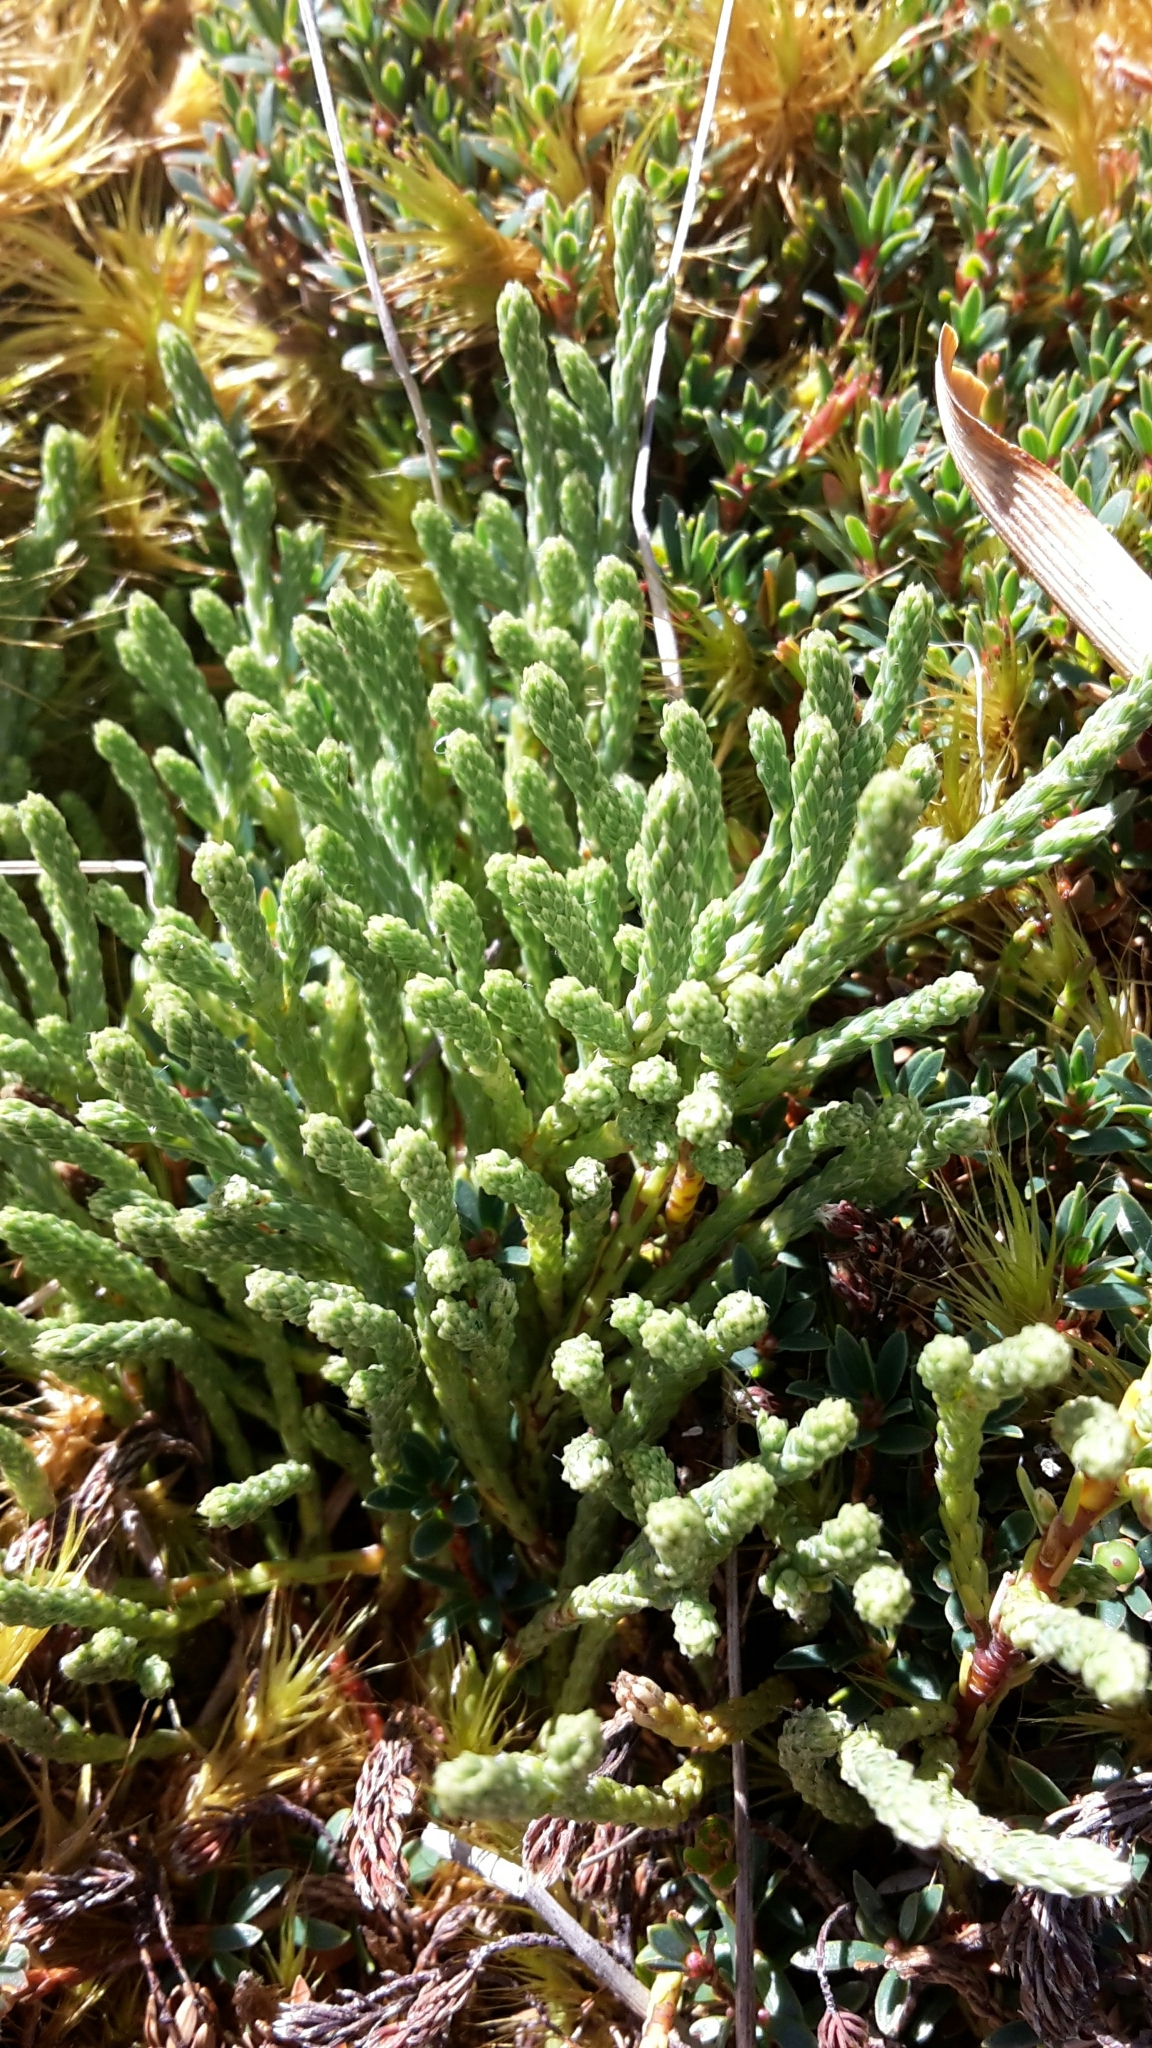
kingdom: Plantae
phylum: Tracheophyta
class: Magnoliopsida
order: Malvales
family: Thymelaeaceae
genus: Kelleria
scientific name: Kelleria dieffenbachii
